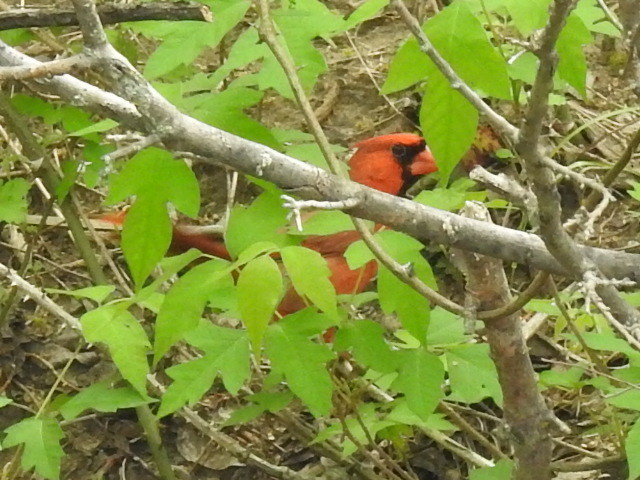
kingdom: Animalia
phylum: Chordata
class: Aves
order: Passeriformes
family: Cardinalidae
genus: Cardinalis
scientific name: Cardinalis cardinalis
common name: Northern cardinal
